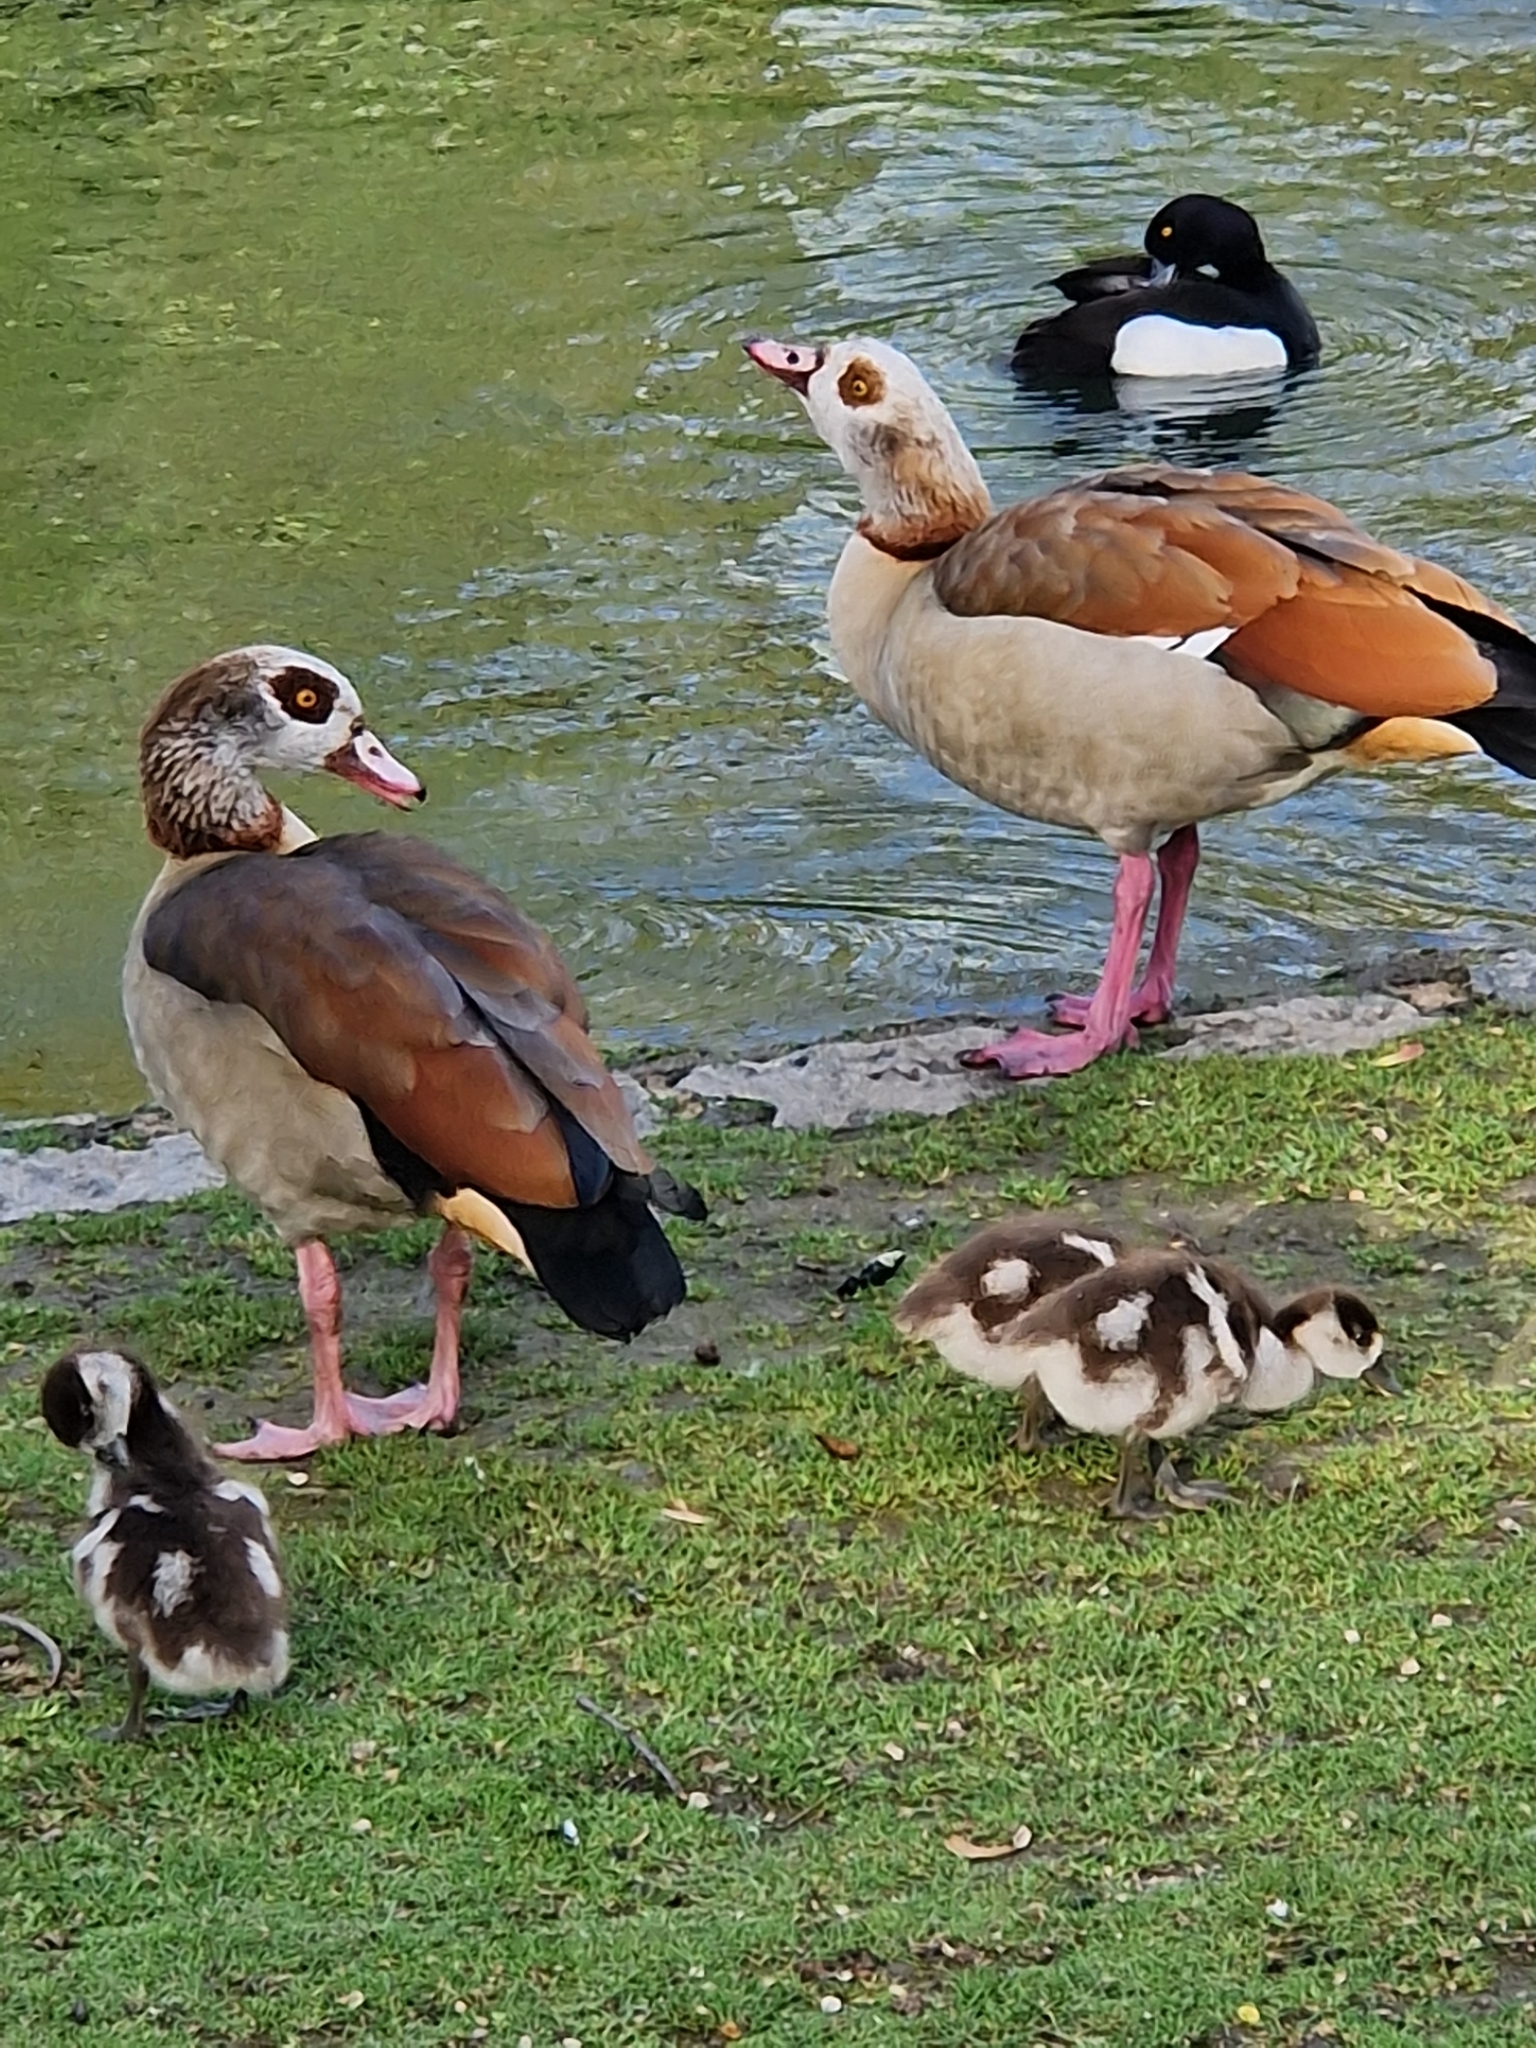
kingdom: Animalia
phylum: Chordata
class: Aves
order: Anseriformes
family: Anatidae
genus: Alopochen
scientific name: Alopochen aegyptiaca
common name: Egyptian goose
